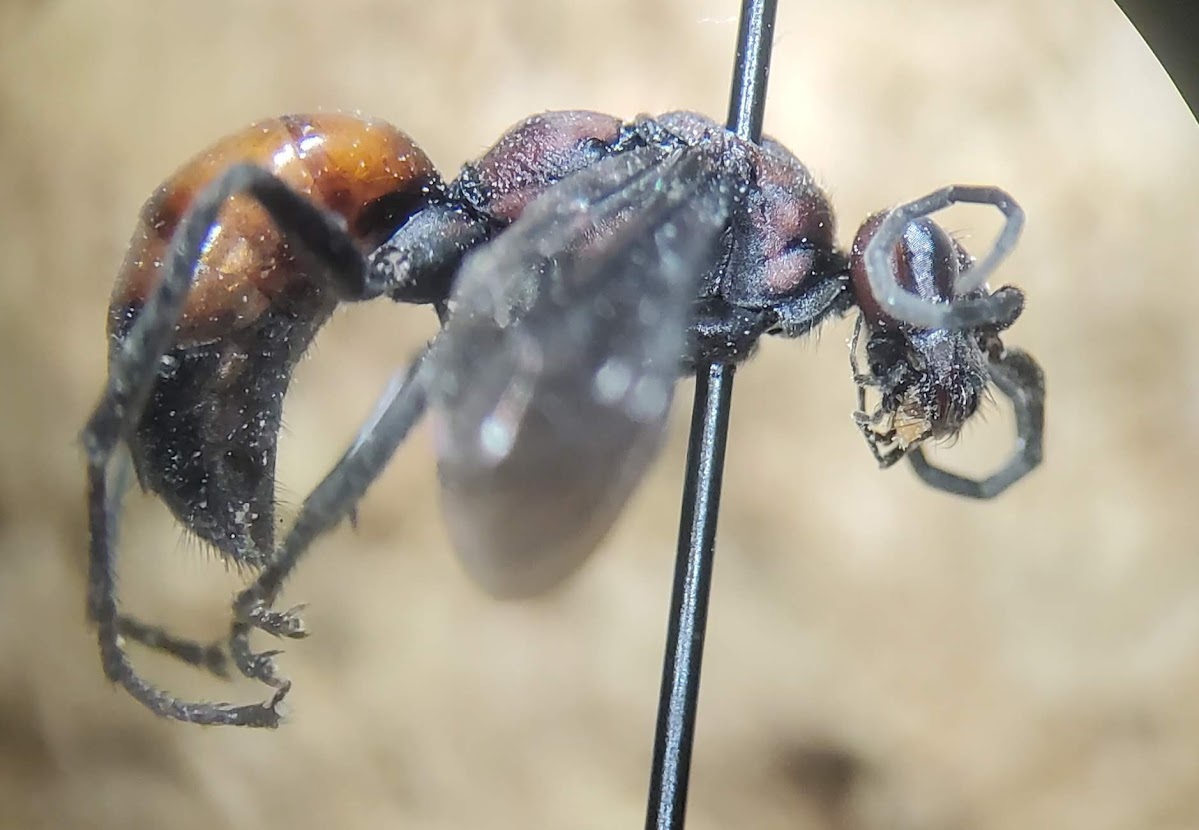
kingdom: Animalia
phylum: Arthropoda
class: Insecta
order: Hymenoptera
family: Pompilidae
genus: Priocnemis
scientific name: Priocnemis nigripes
